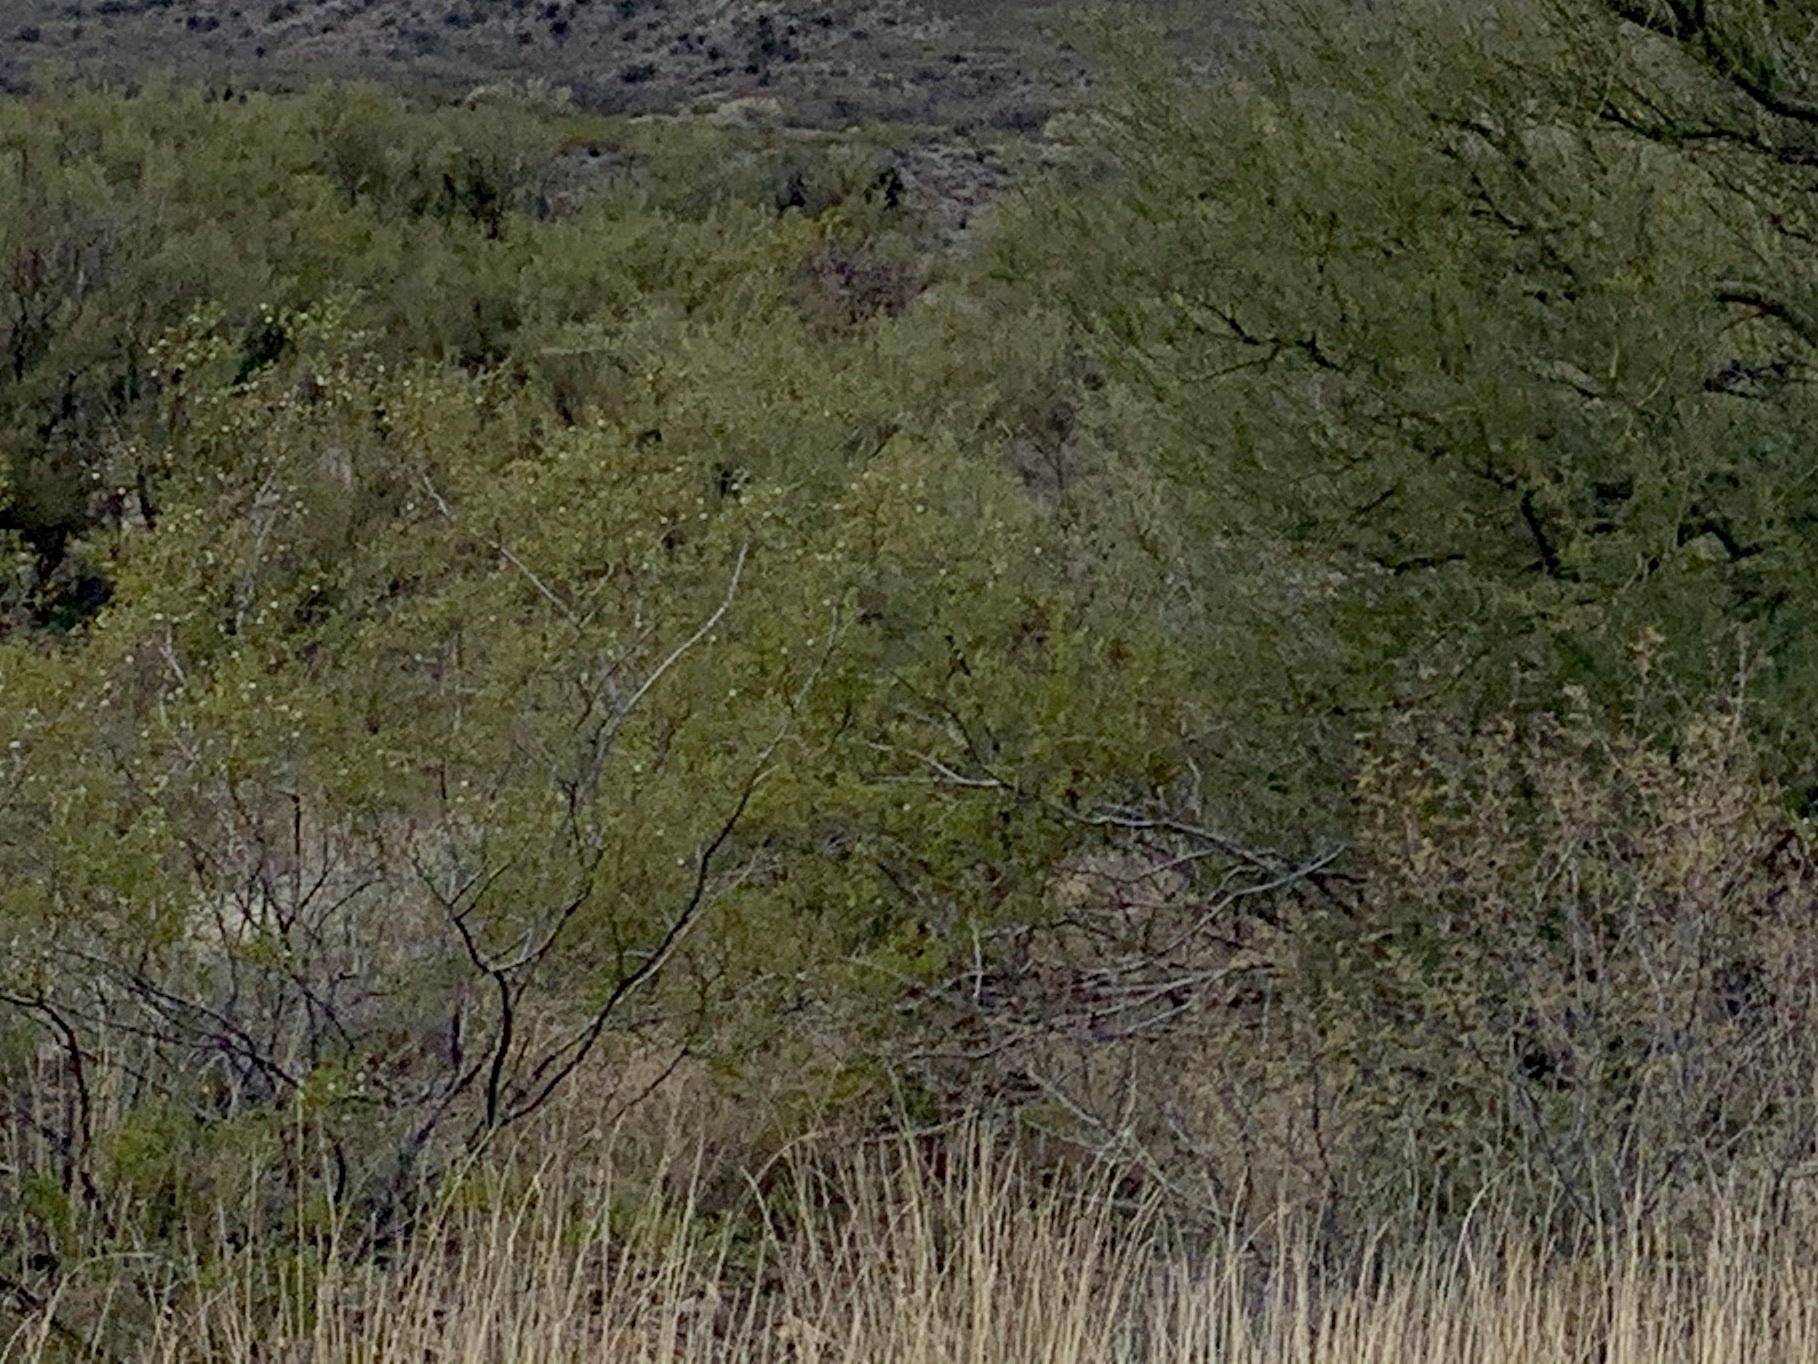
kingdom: Plantae
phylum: Tracheophyta
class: Magnoliopsida
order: Zygophyllales
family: Zygophyllaceae
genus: Larrea
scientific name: Larrea tridentata
